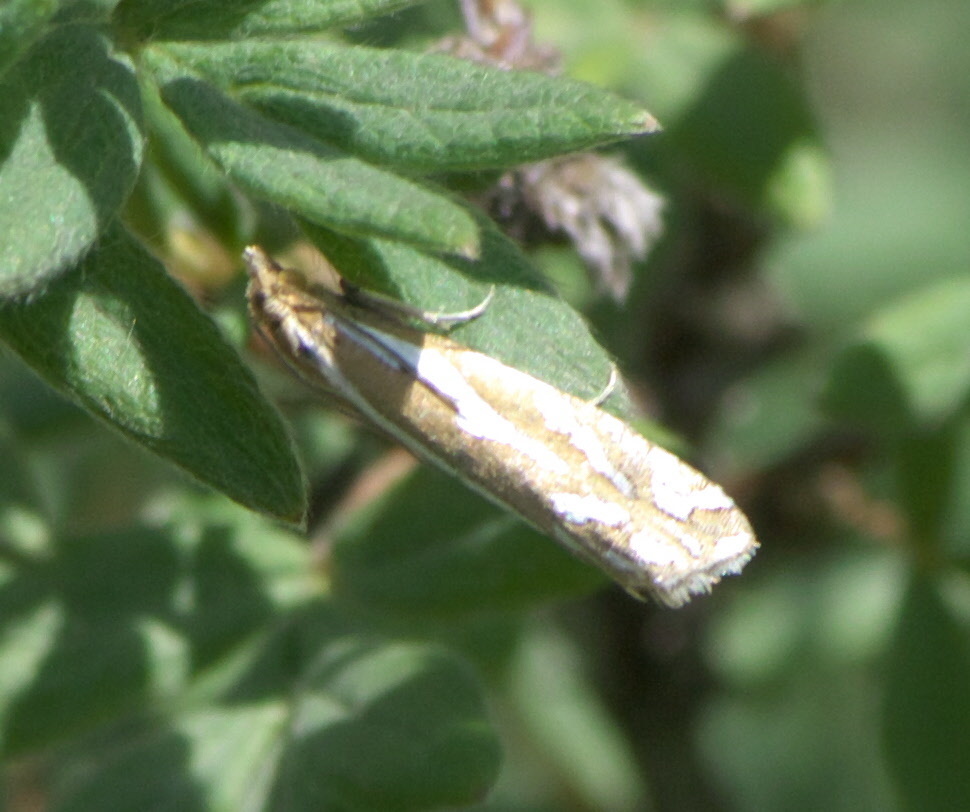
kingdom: Animalia
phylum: Arthropoda
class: Insecta
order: Lepidoptera
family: Tortricidae
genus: Pelochrista
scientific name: Pelochrista ridingsana
